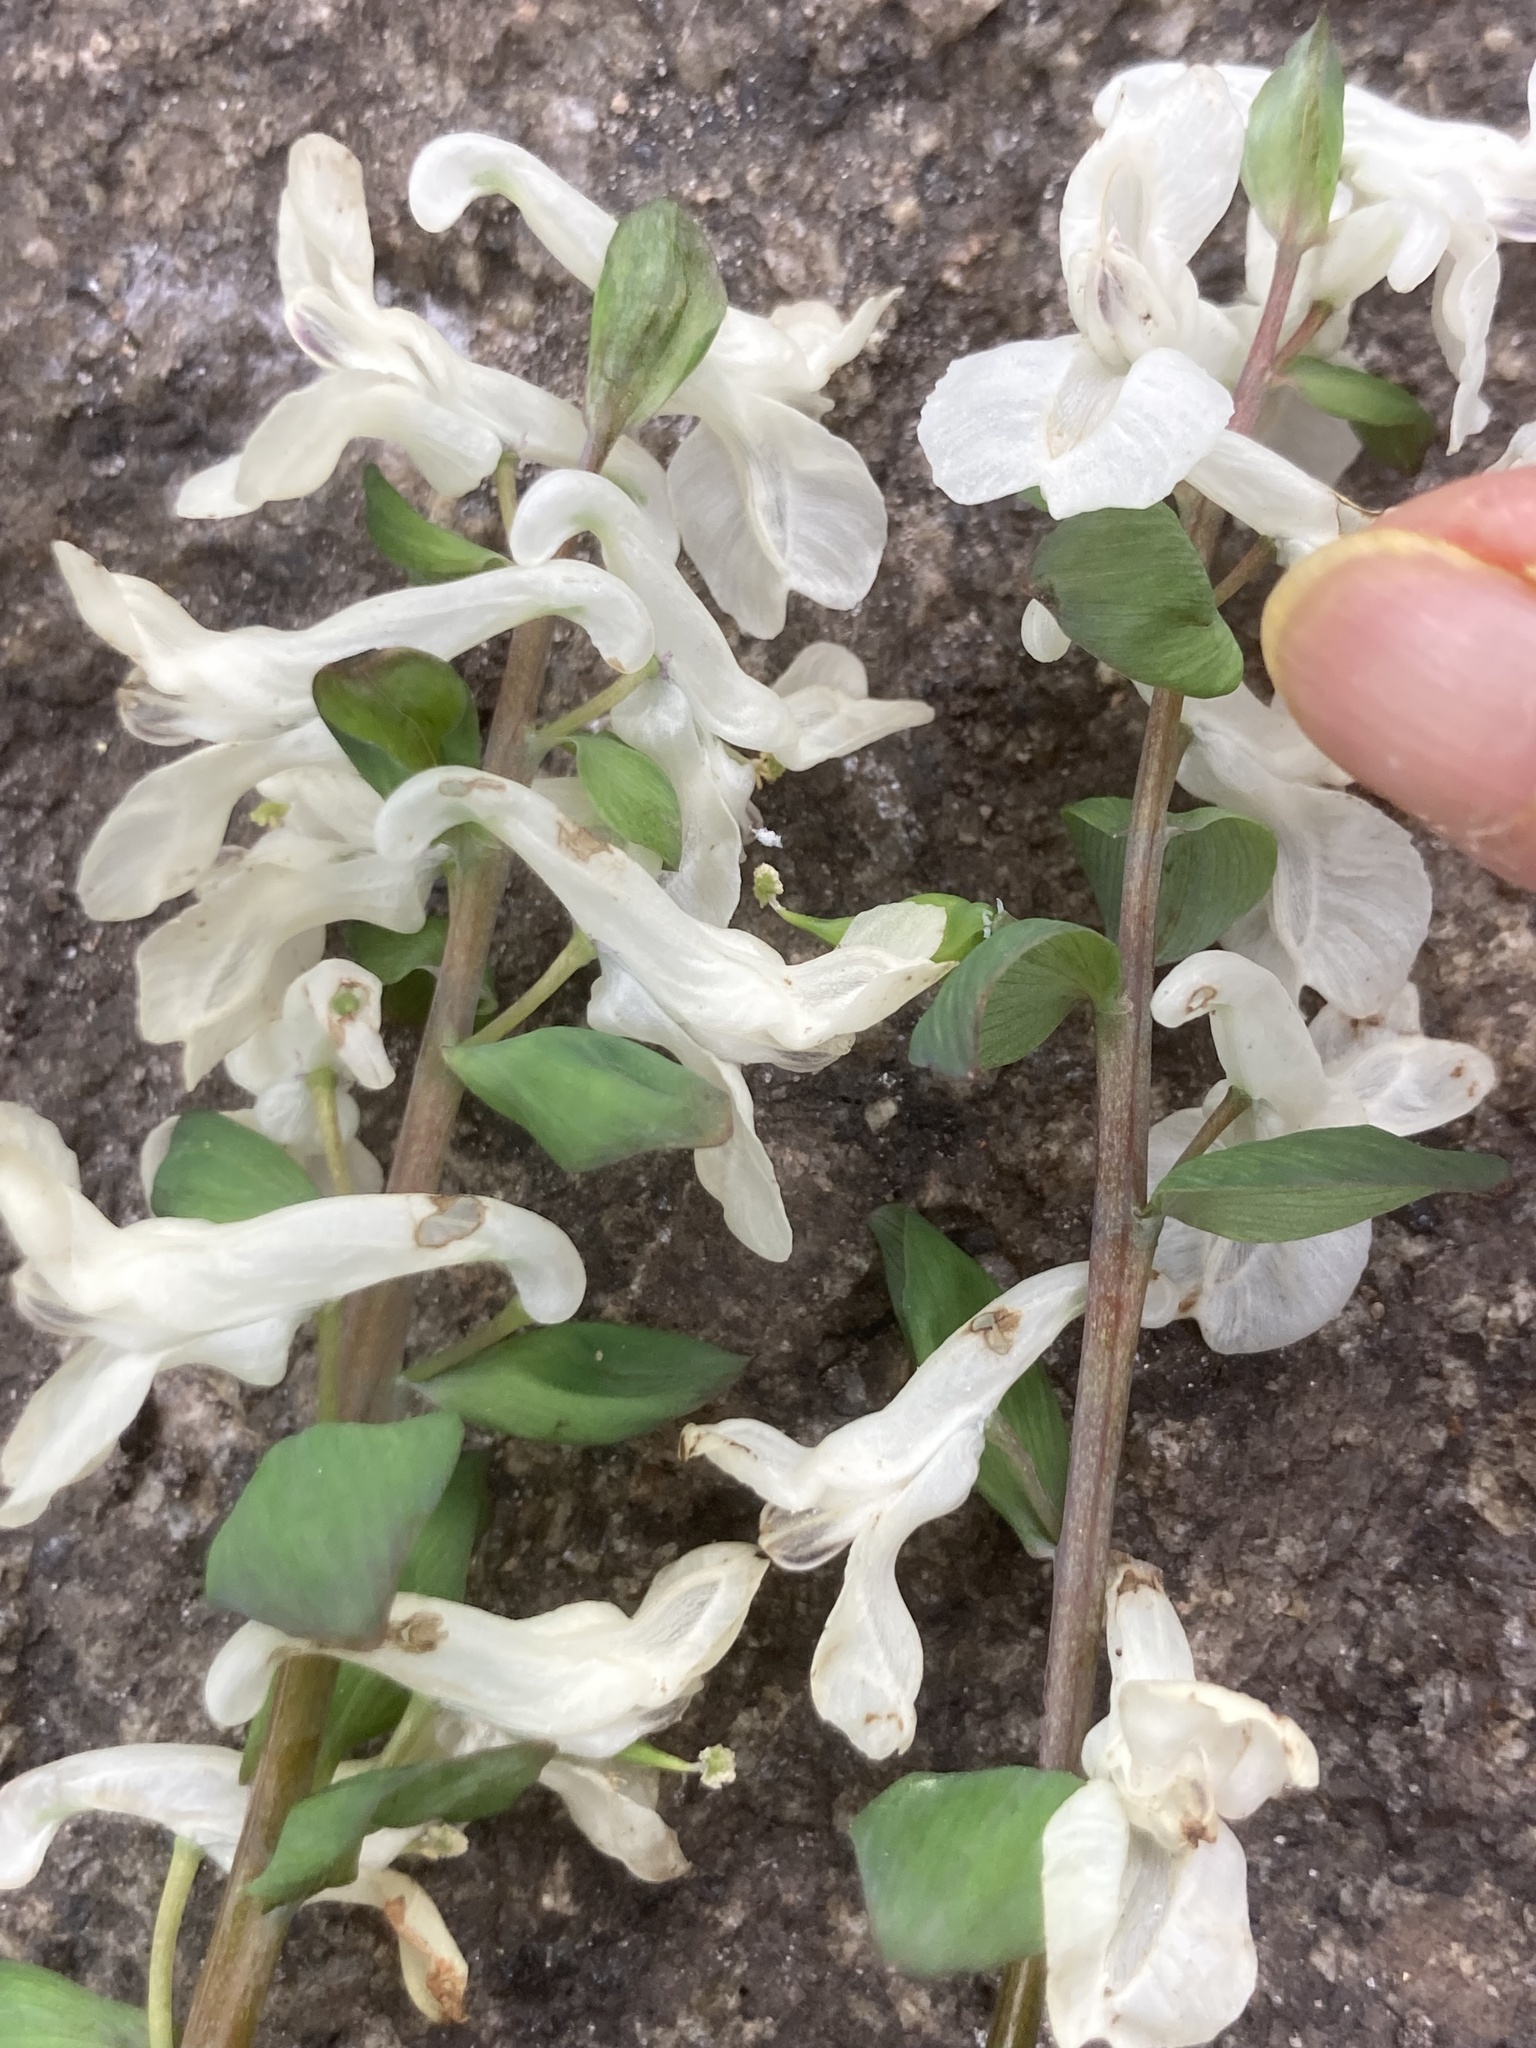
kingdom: Plantae
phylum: Tracheophyta
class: Magnoliopsida
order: Ranunculales
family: Papaveraceae
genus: Corydalis
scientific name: Corydalis cava
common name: Hollowroot
